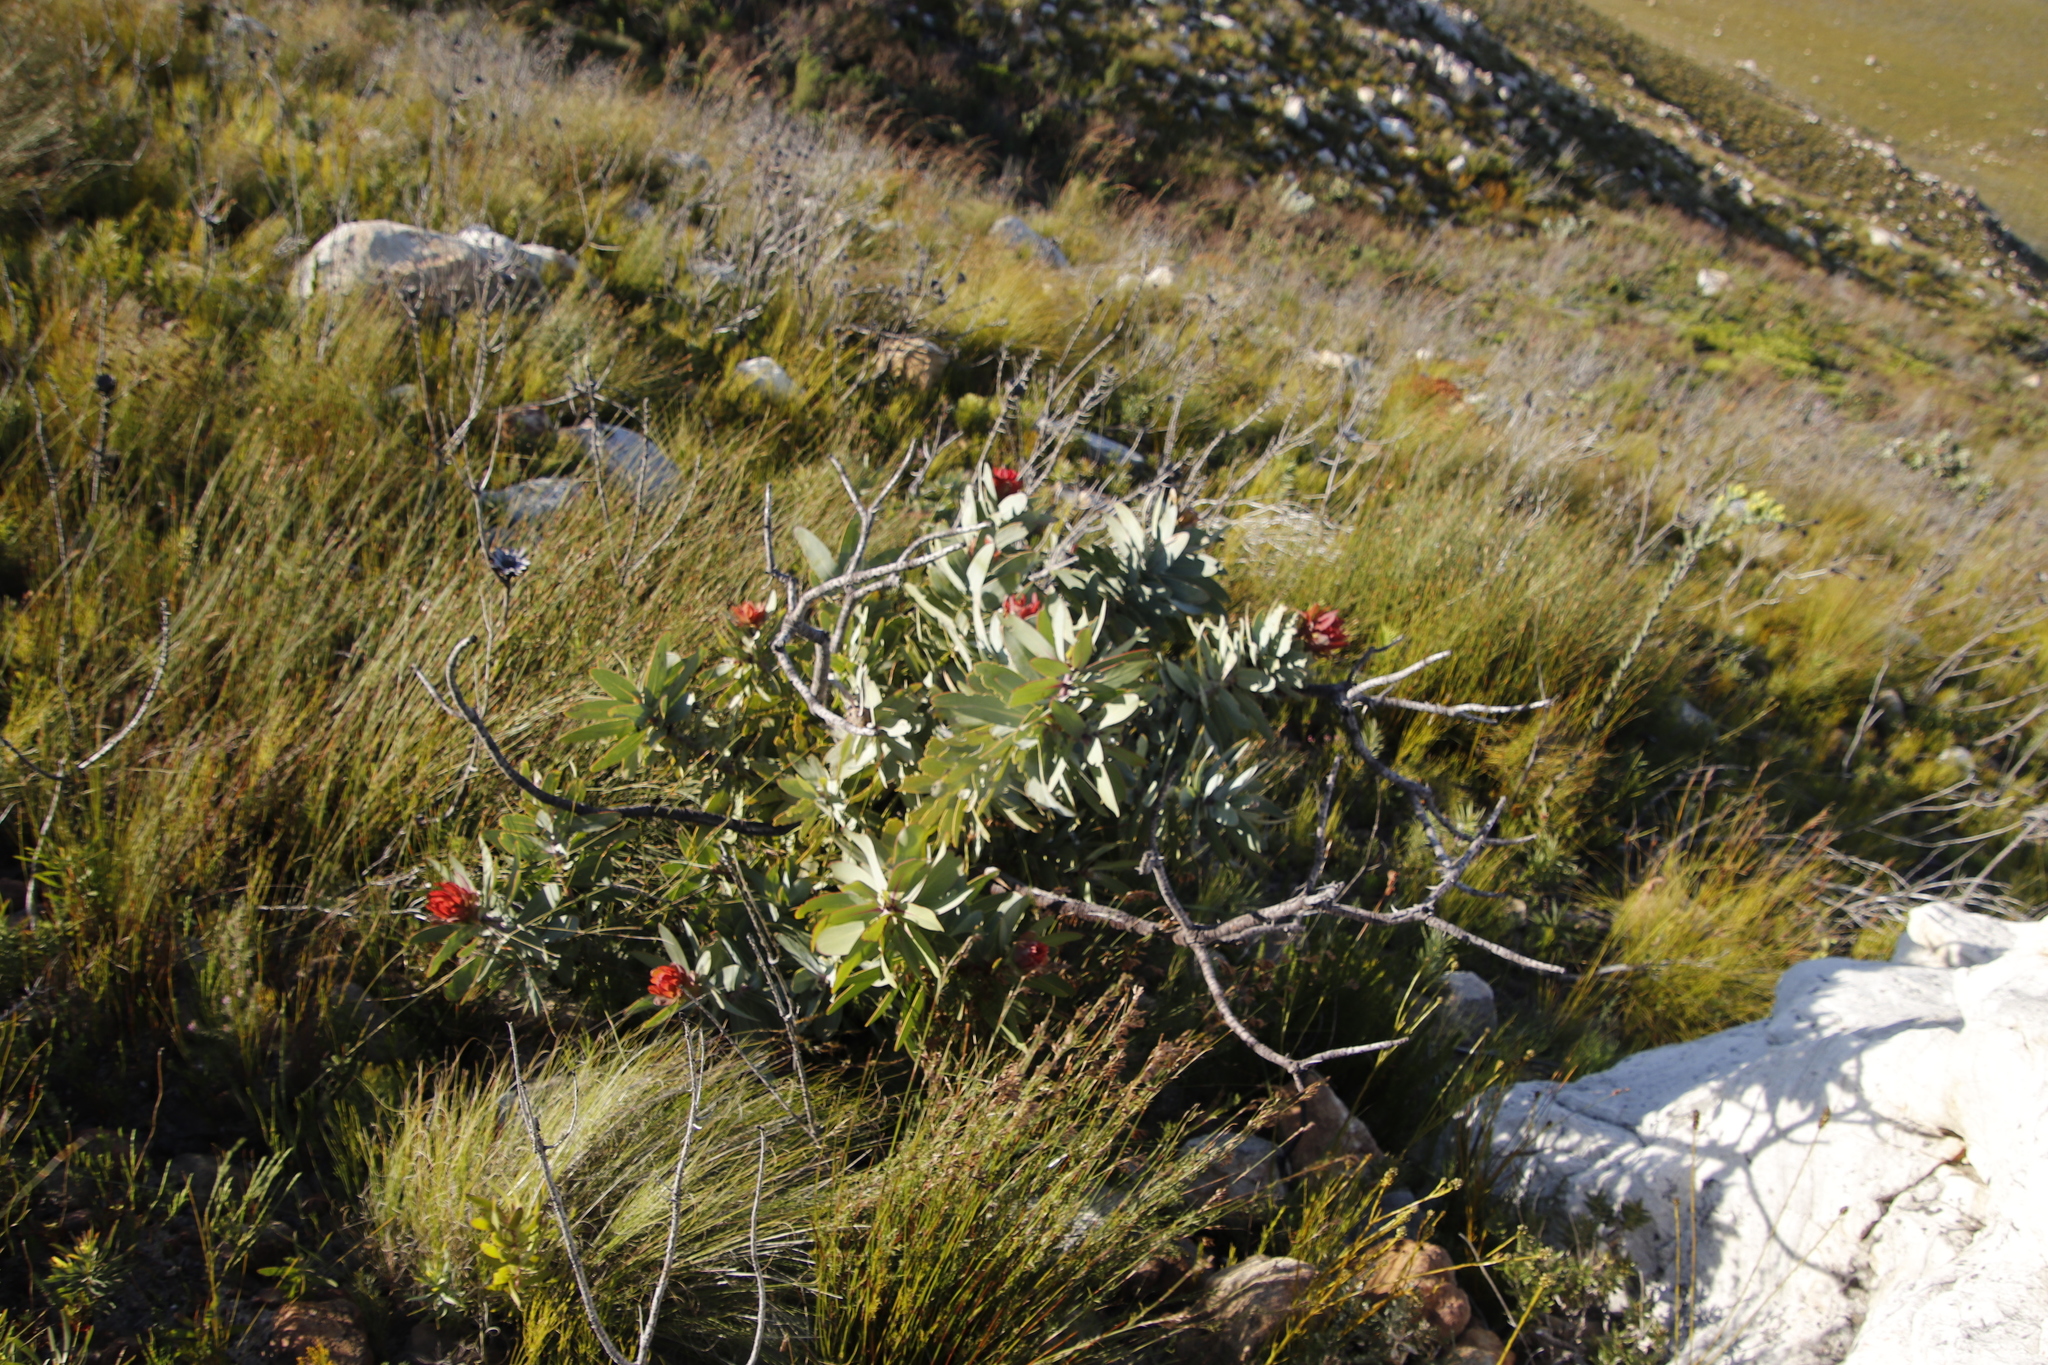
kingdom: Plantae
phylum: Tracheophyta
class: Magnoliopsida
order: Proteales
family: Proteaceae
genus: Protea
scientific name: Protea nitida
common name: Tree protea
